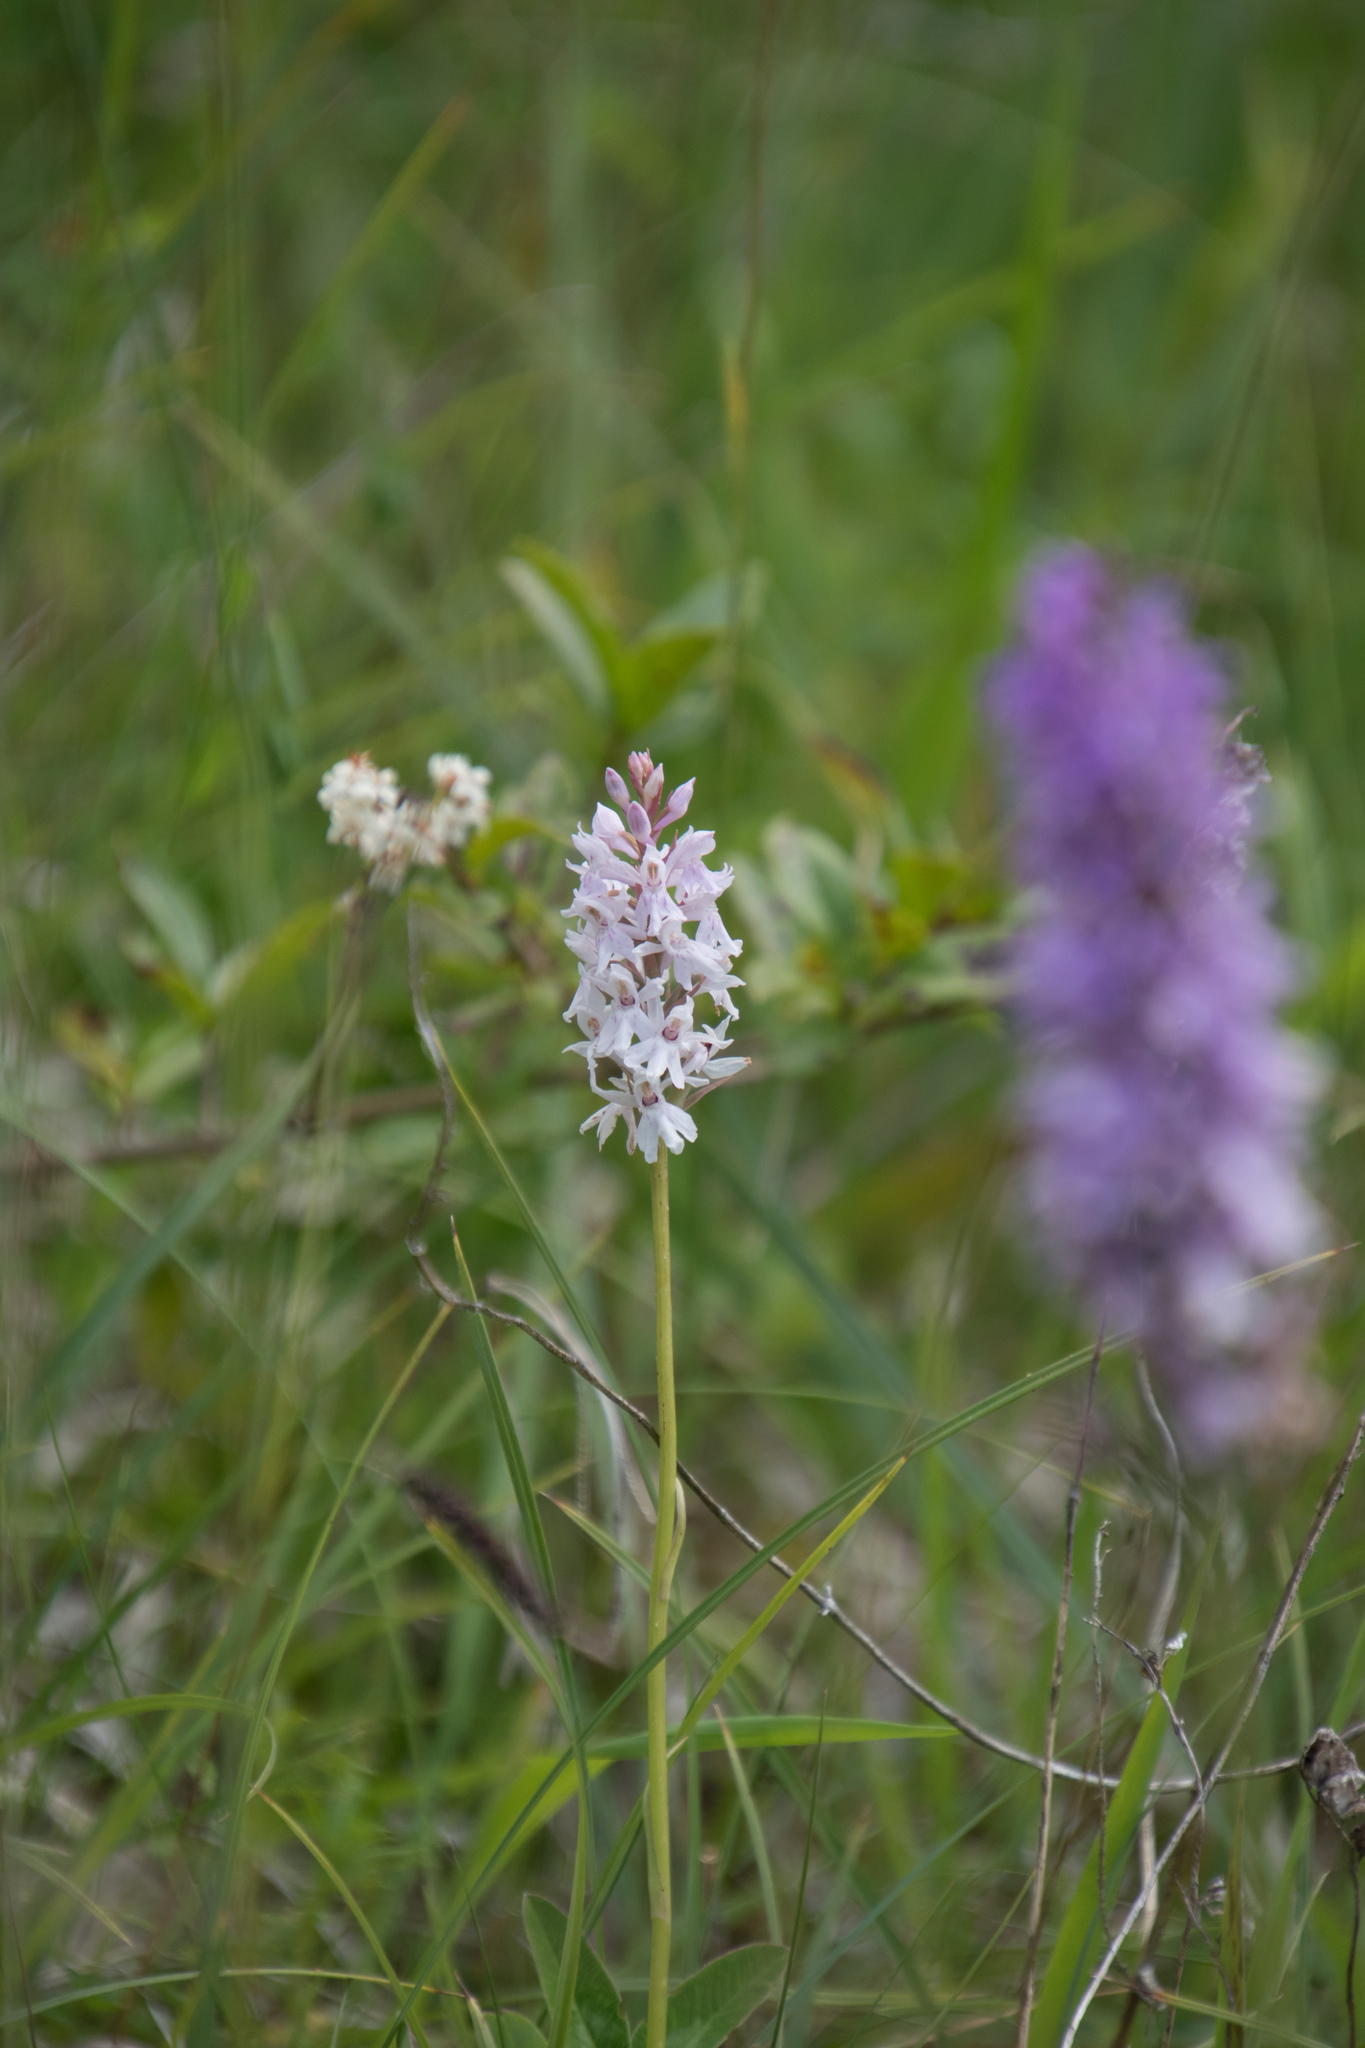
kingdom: Plantae
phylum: Tracheophyta
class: Liliopsida
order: Asparagales
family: Orchidaceae
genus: Dactylorhiza
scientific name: Dactylorhiza maculata
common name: Heath spotted-orchid
